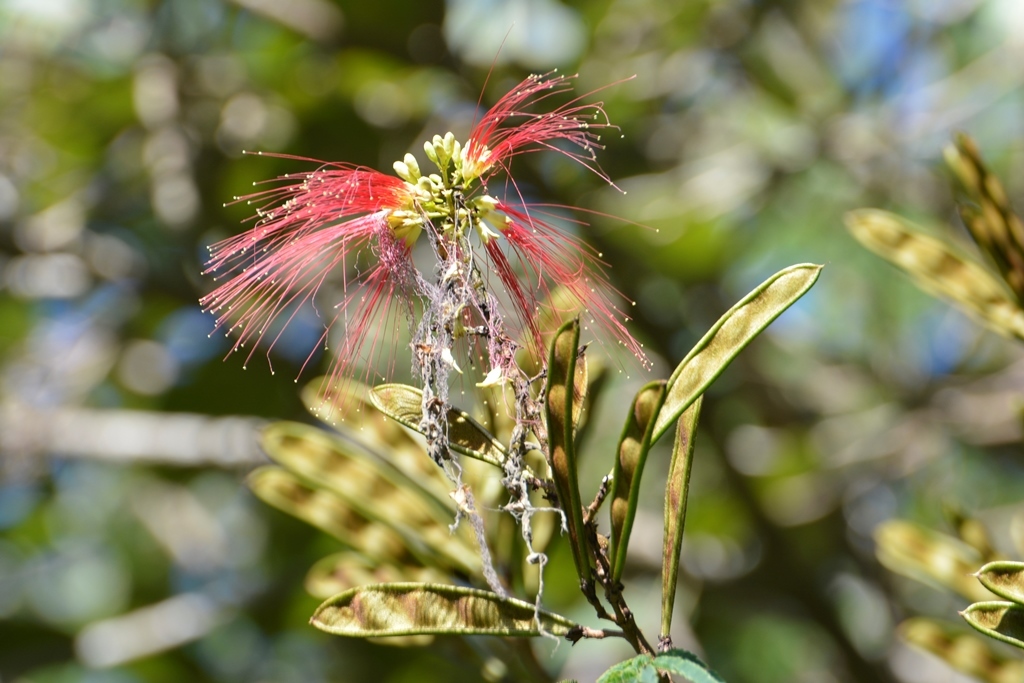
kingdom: Plantae
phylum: Tracheophyta
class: Magnoliopsida
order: Fabales
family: Fabaceae
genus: Calliandra
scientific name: Calliandra houstoniana
